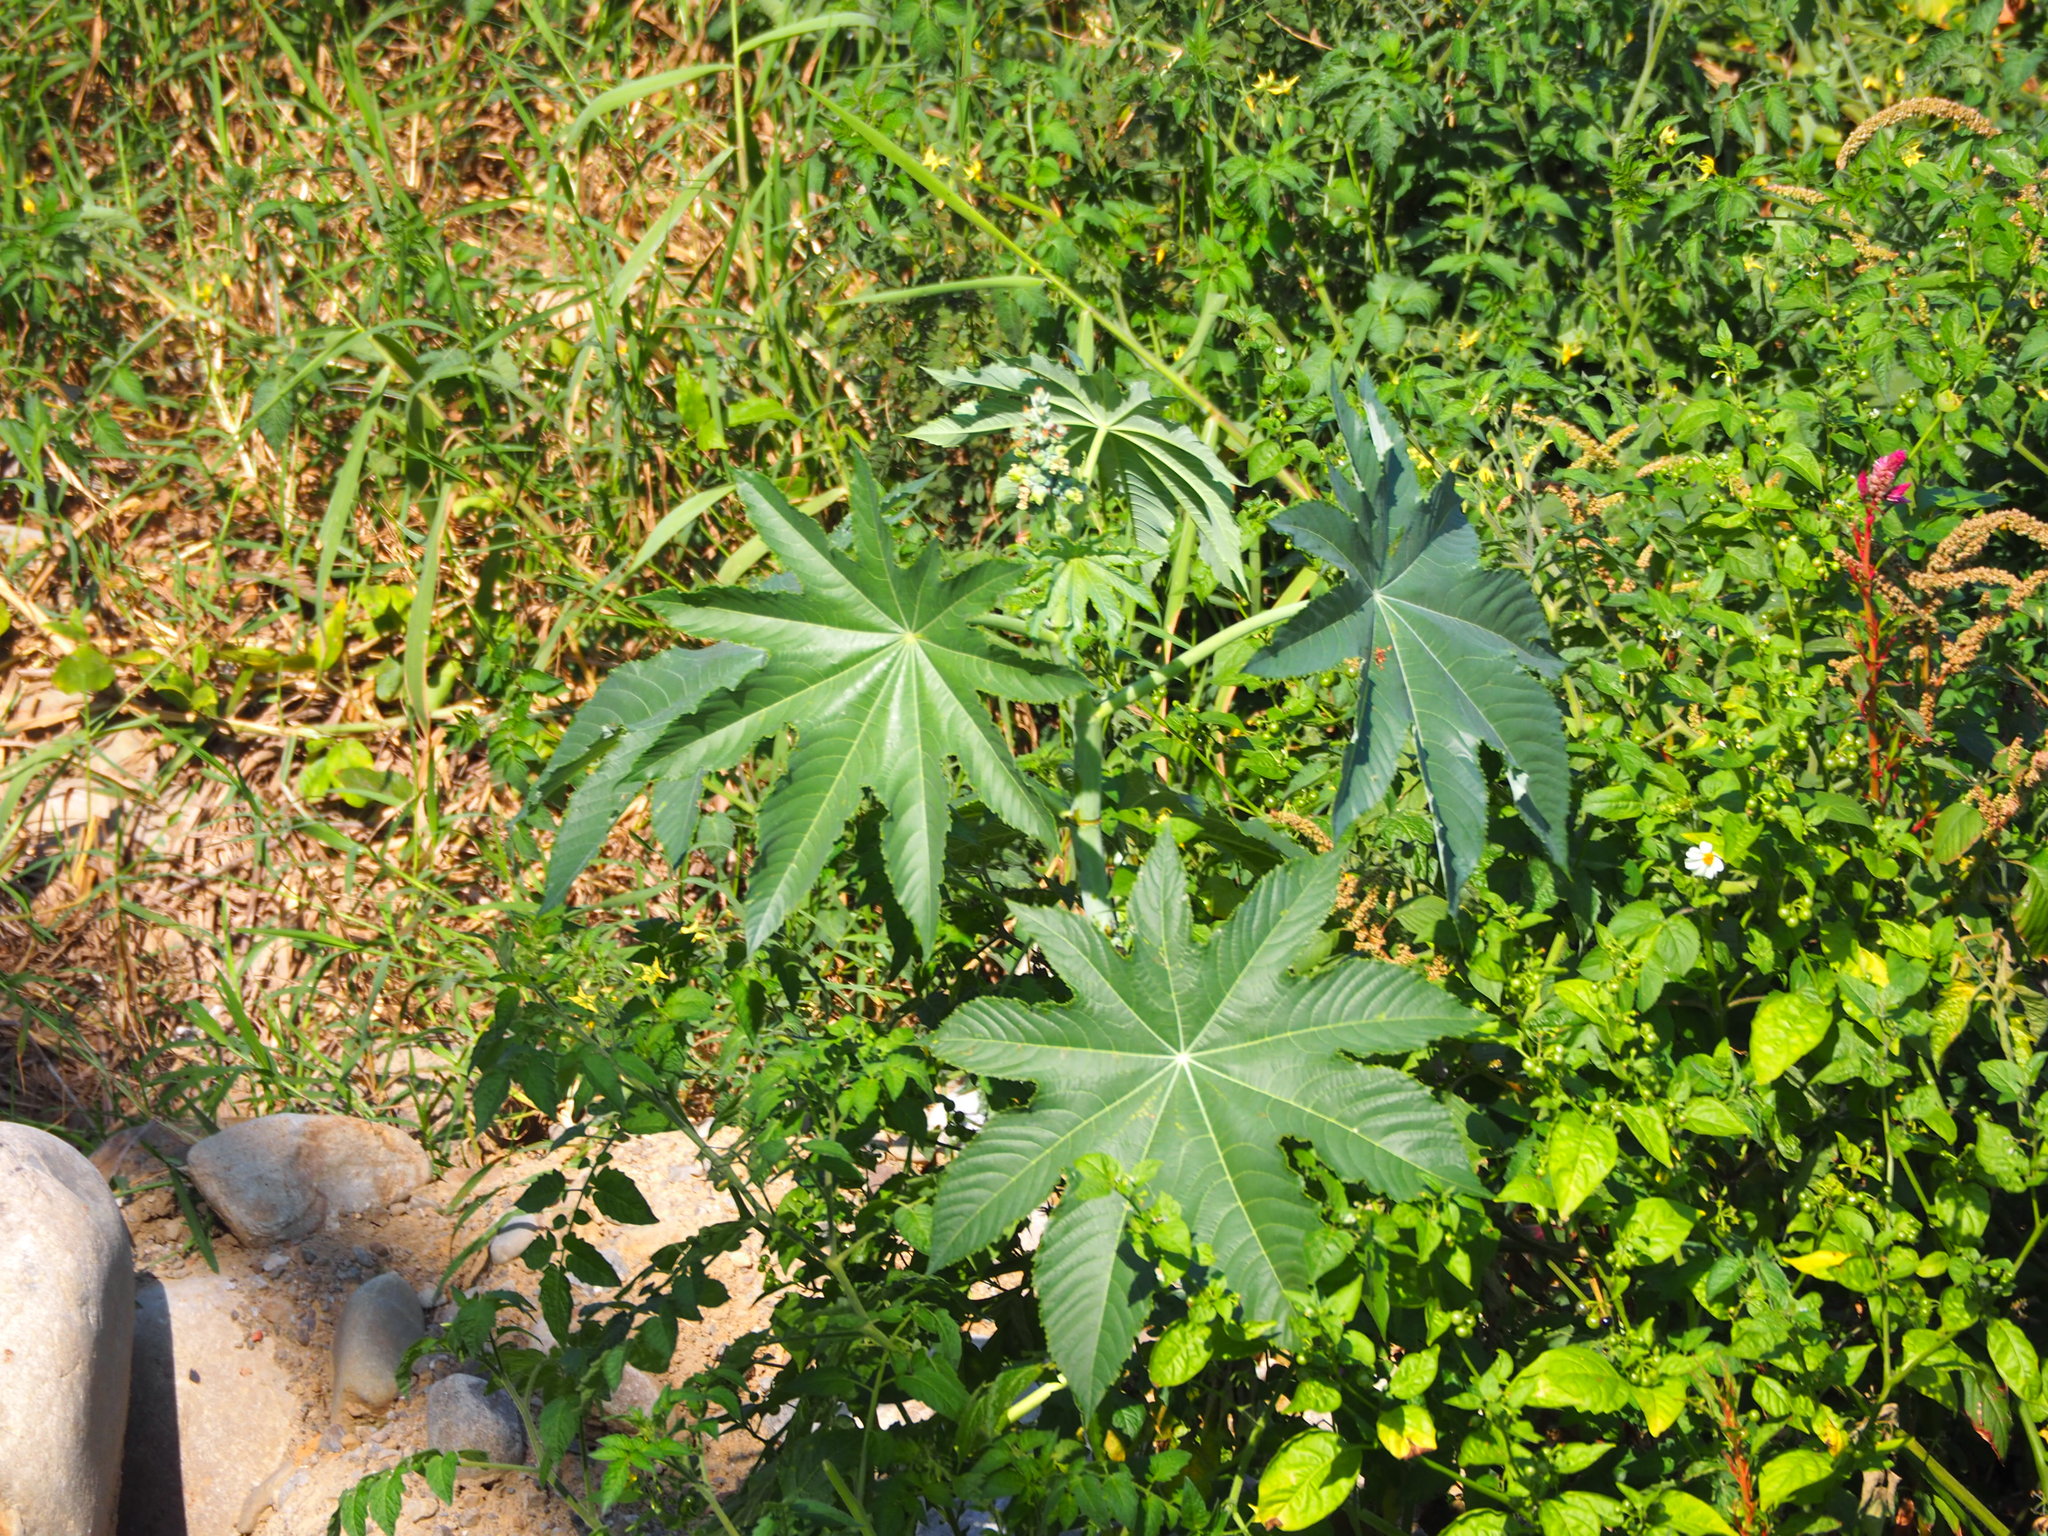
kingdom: Plantae
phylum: Tracheophyta
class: Magnoliopsida
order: Malpighiales
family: Euphorbiaceae
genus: Ricinus
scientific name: Ricinus communis
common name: Castor-oil-plant
